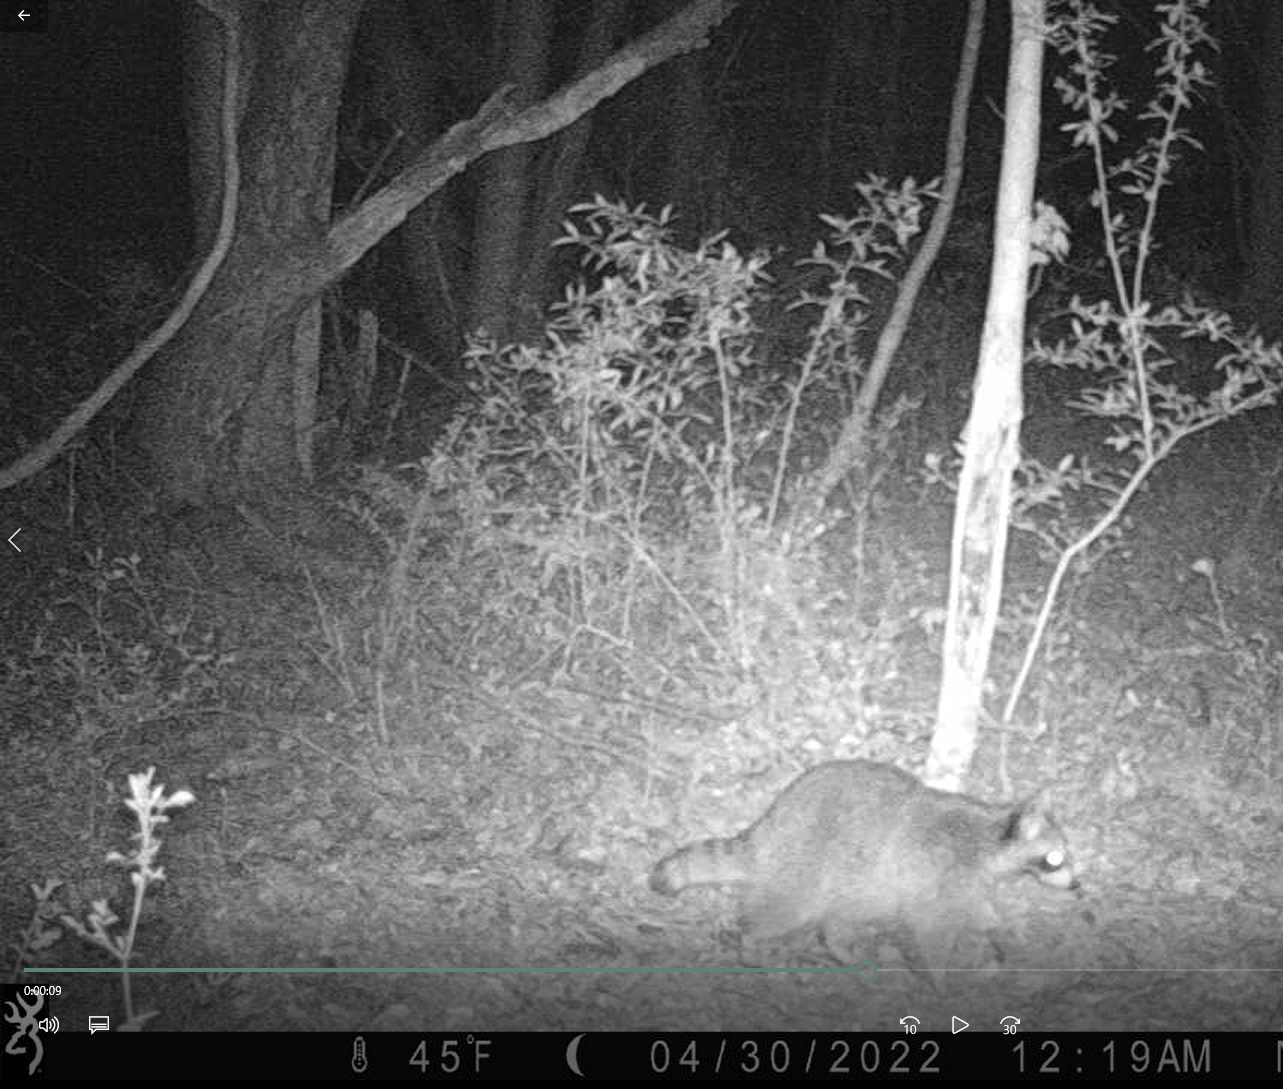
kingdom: Animalia
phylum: Chordata
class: Mammalia
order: Carnivora
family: Procyonidae
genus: Procyon
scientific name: Procyon lotor
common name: Raccoon
